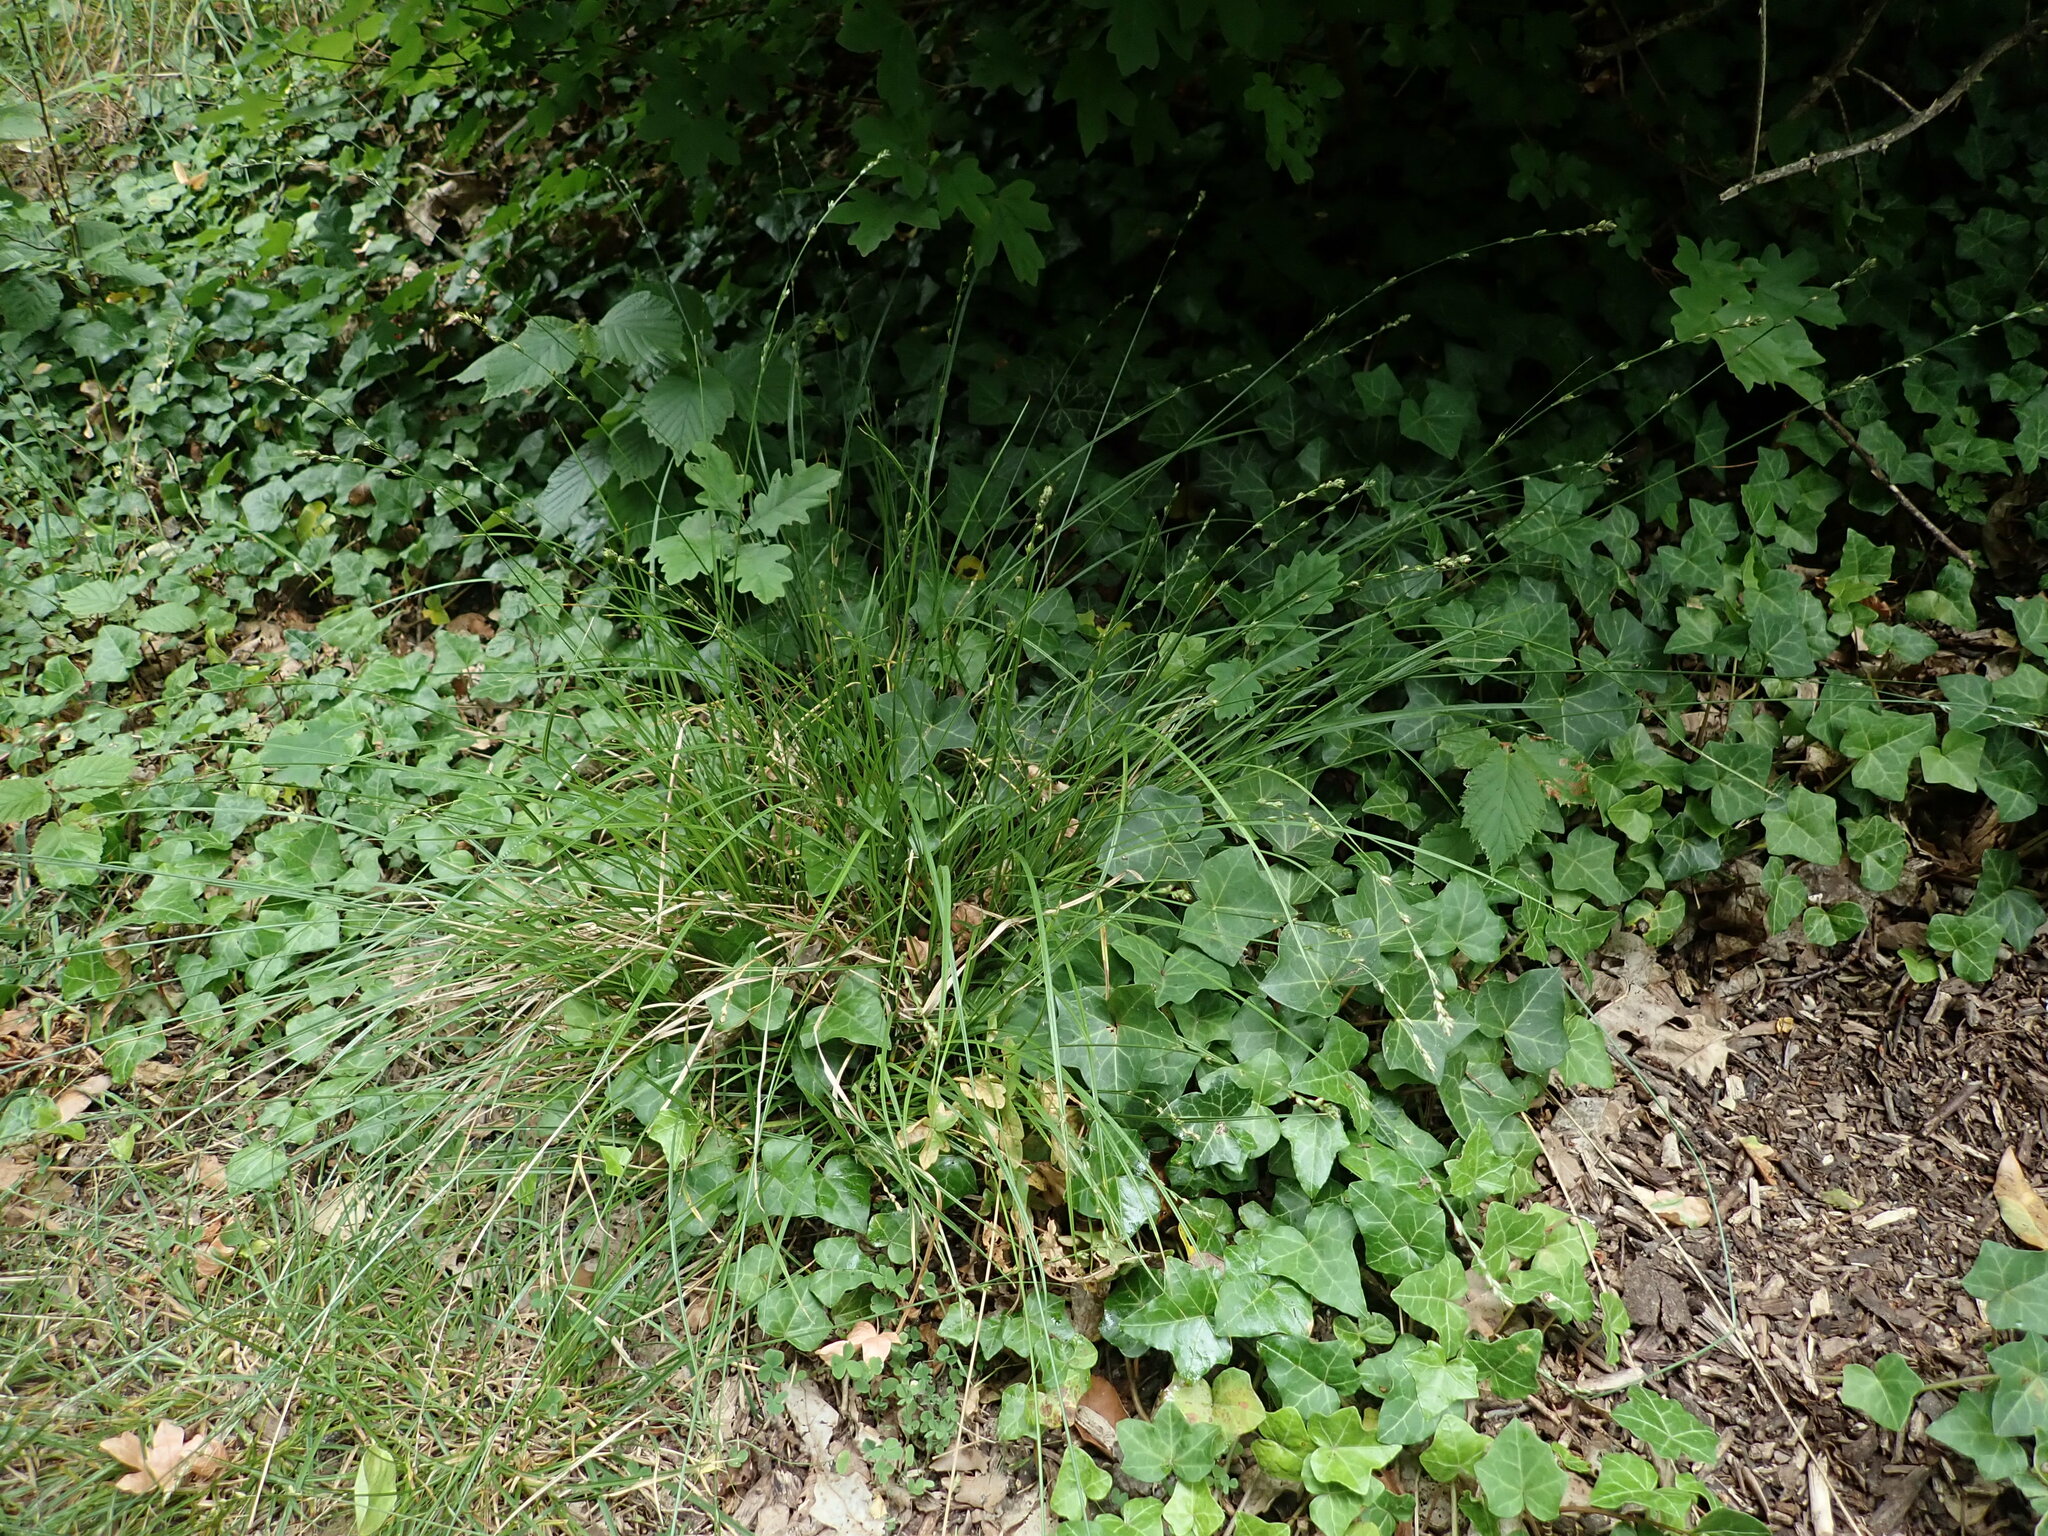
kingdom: Plantae
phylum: Tracheophyta
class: Liliopsida
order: Poales
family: Cyperaceae
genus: Carex
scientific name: Carex divulsa
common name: Grassland sedge
